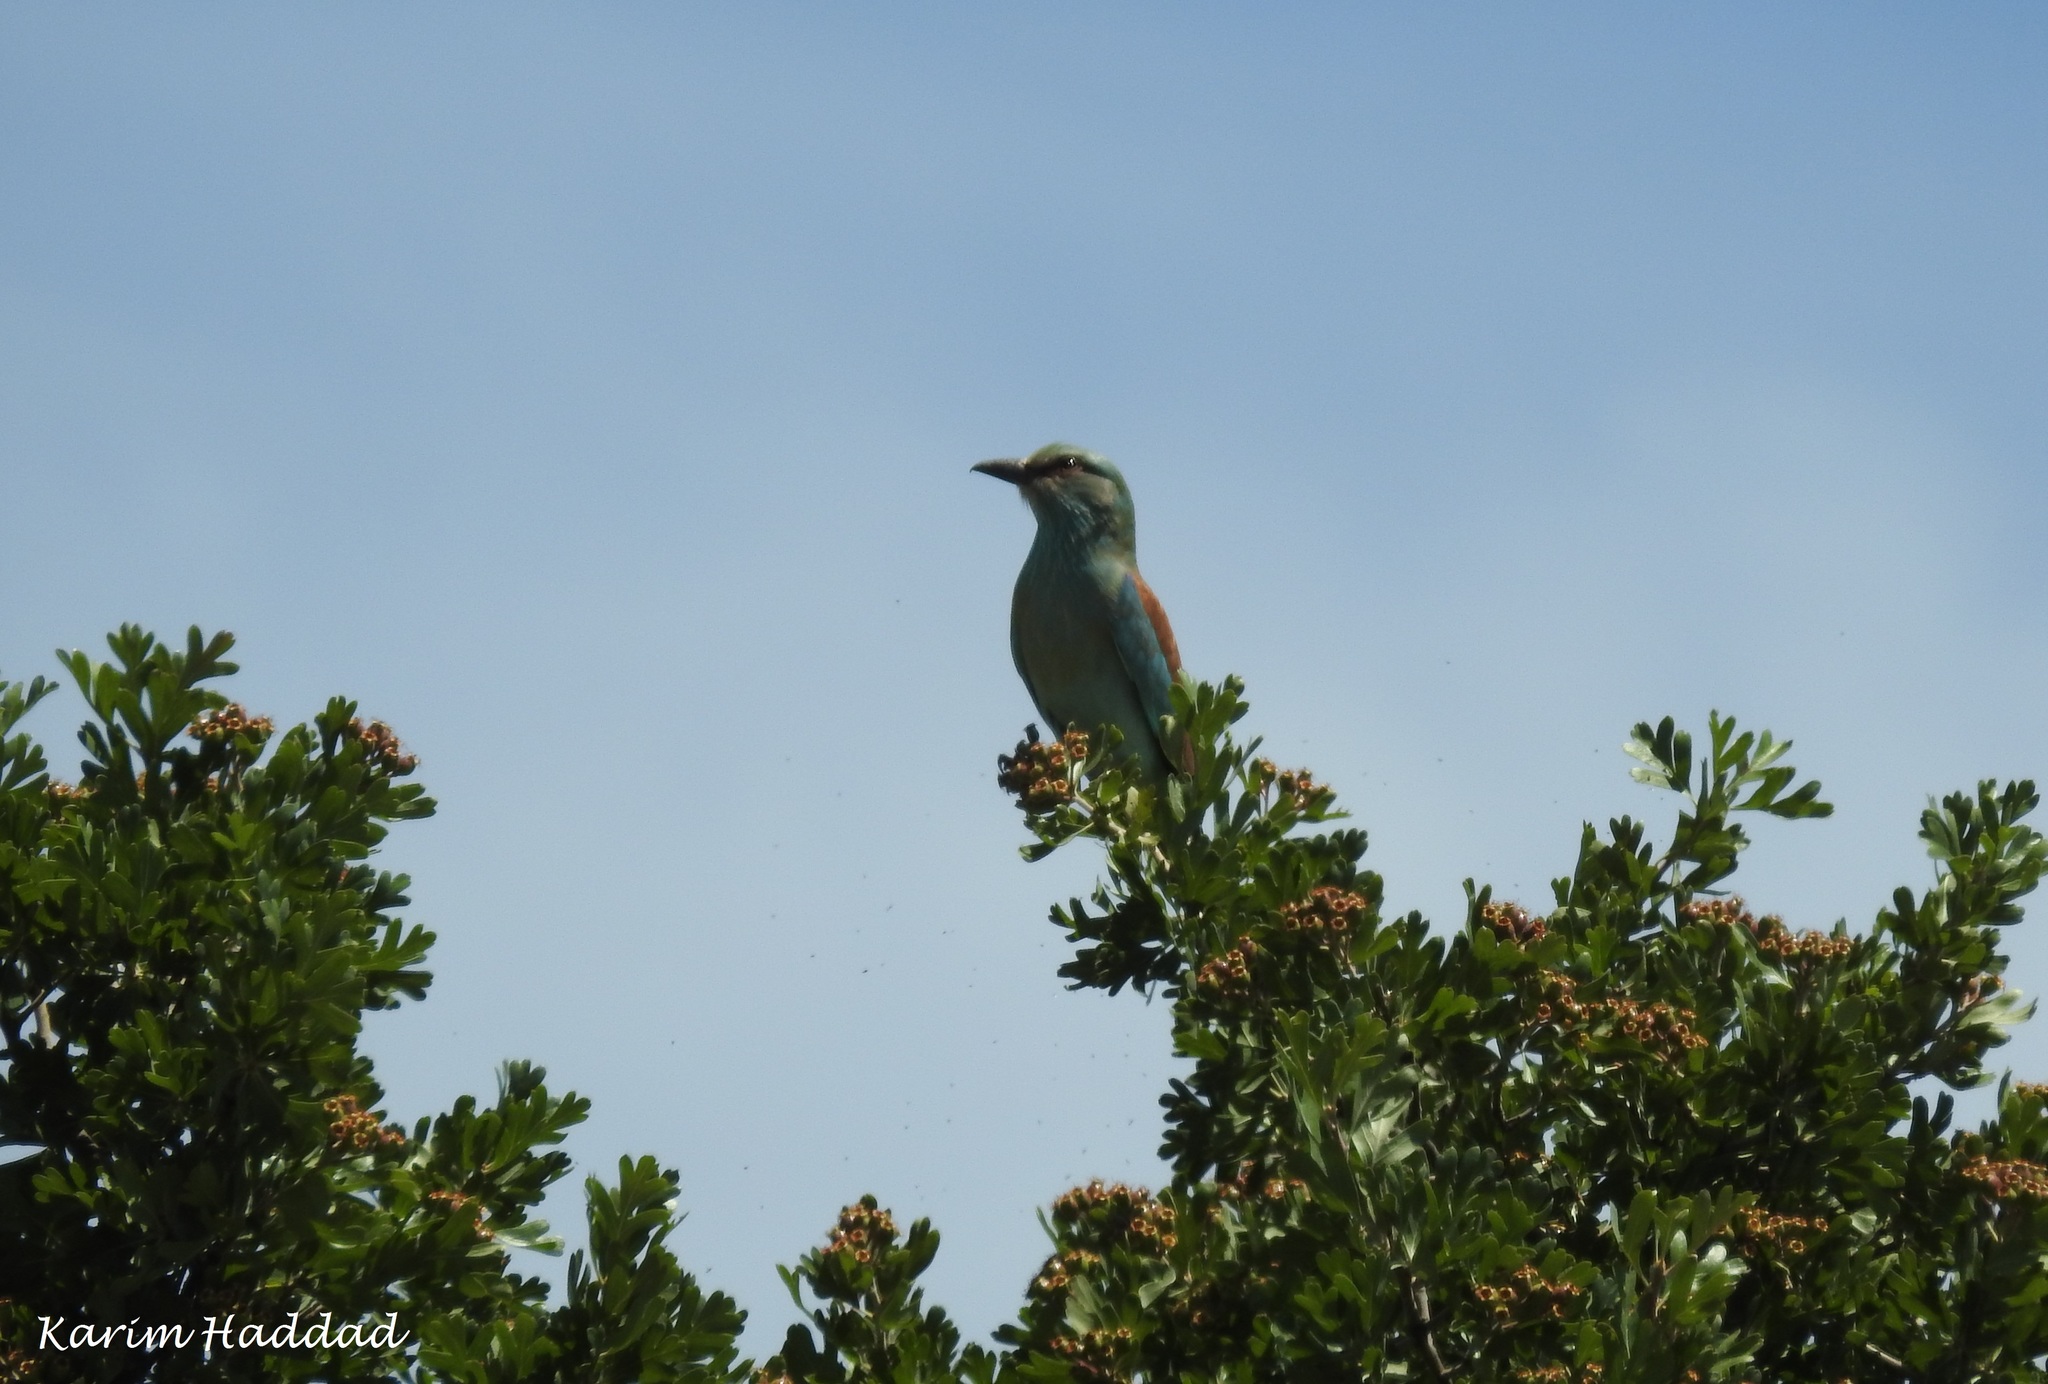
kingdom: Animalia
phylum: Chordata
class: Aves
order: Coraciiformes
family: Coraciidae
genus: Coracias
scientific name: Coracias garrulus
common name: European roller
